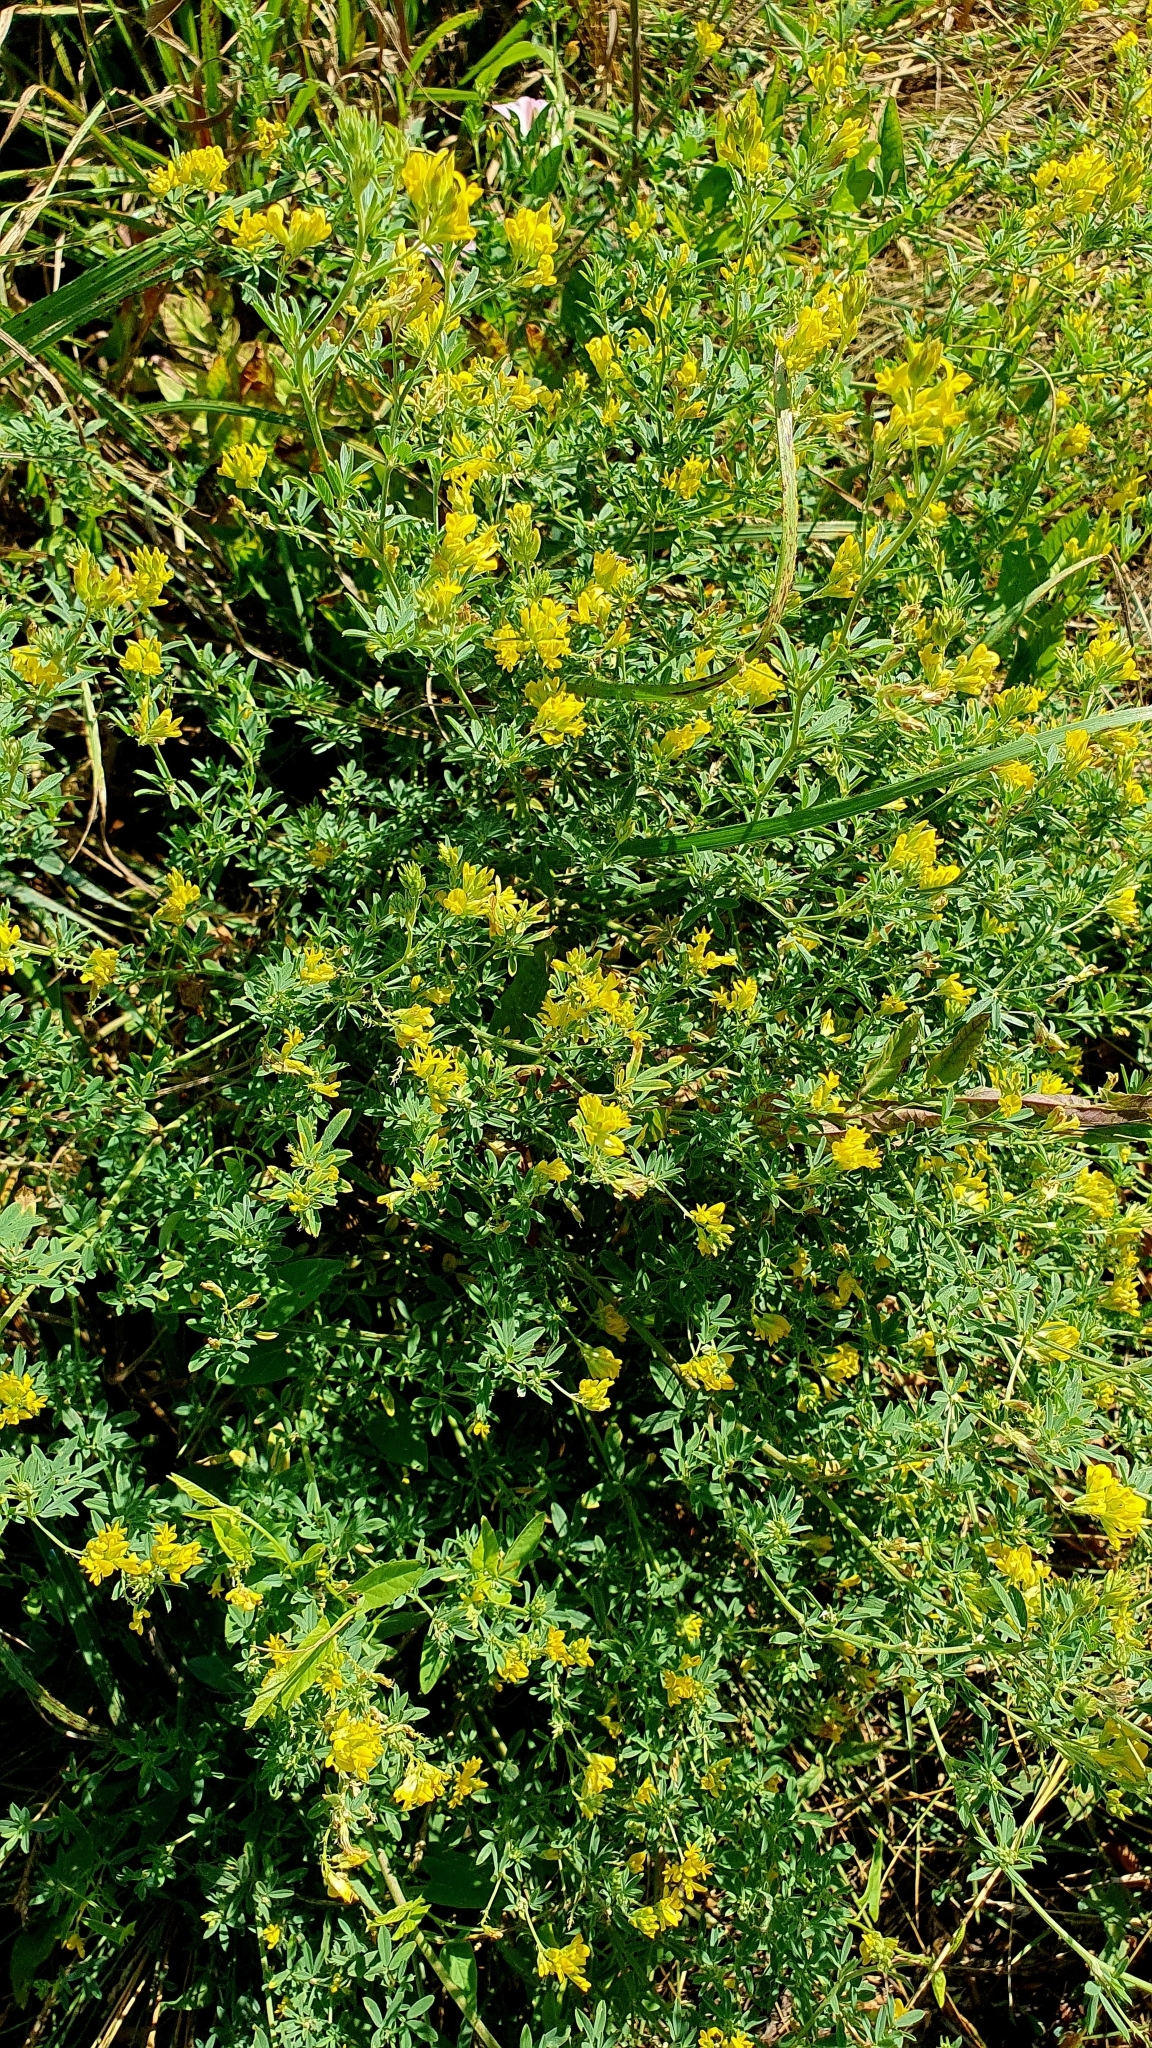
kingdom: Plantae
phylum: Tracheophyta
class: Magnoliopsida
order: Fabales
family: Fabaceae
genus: Medicago
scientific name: Medicago falcata
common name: Sickle medick
